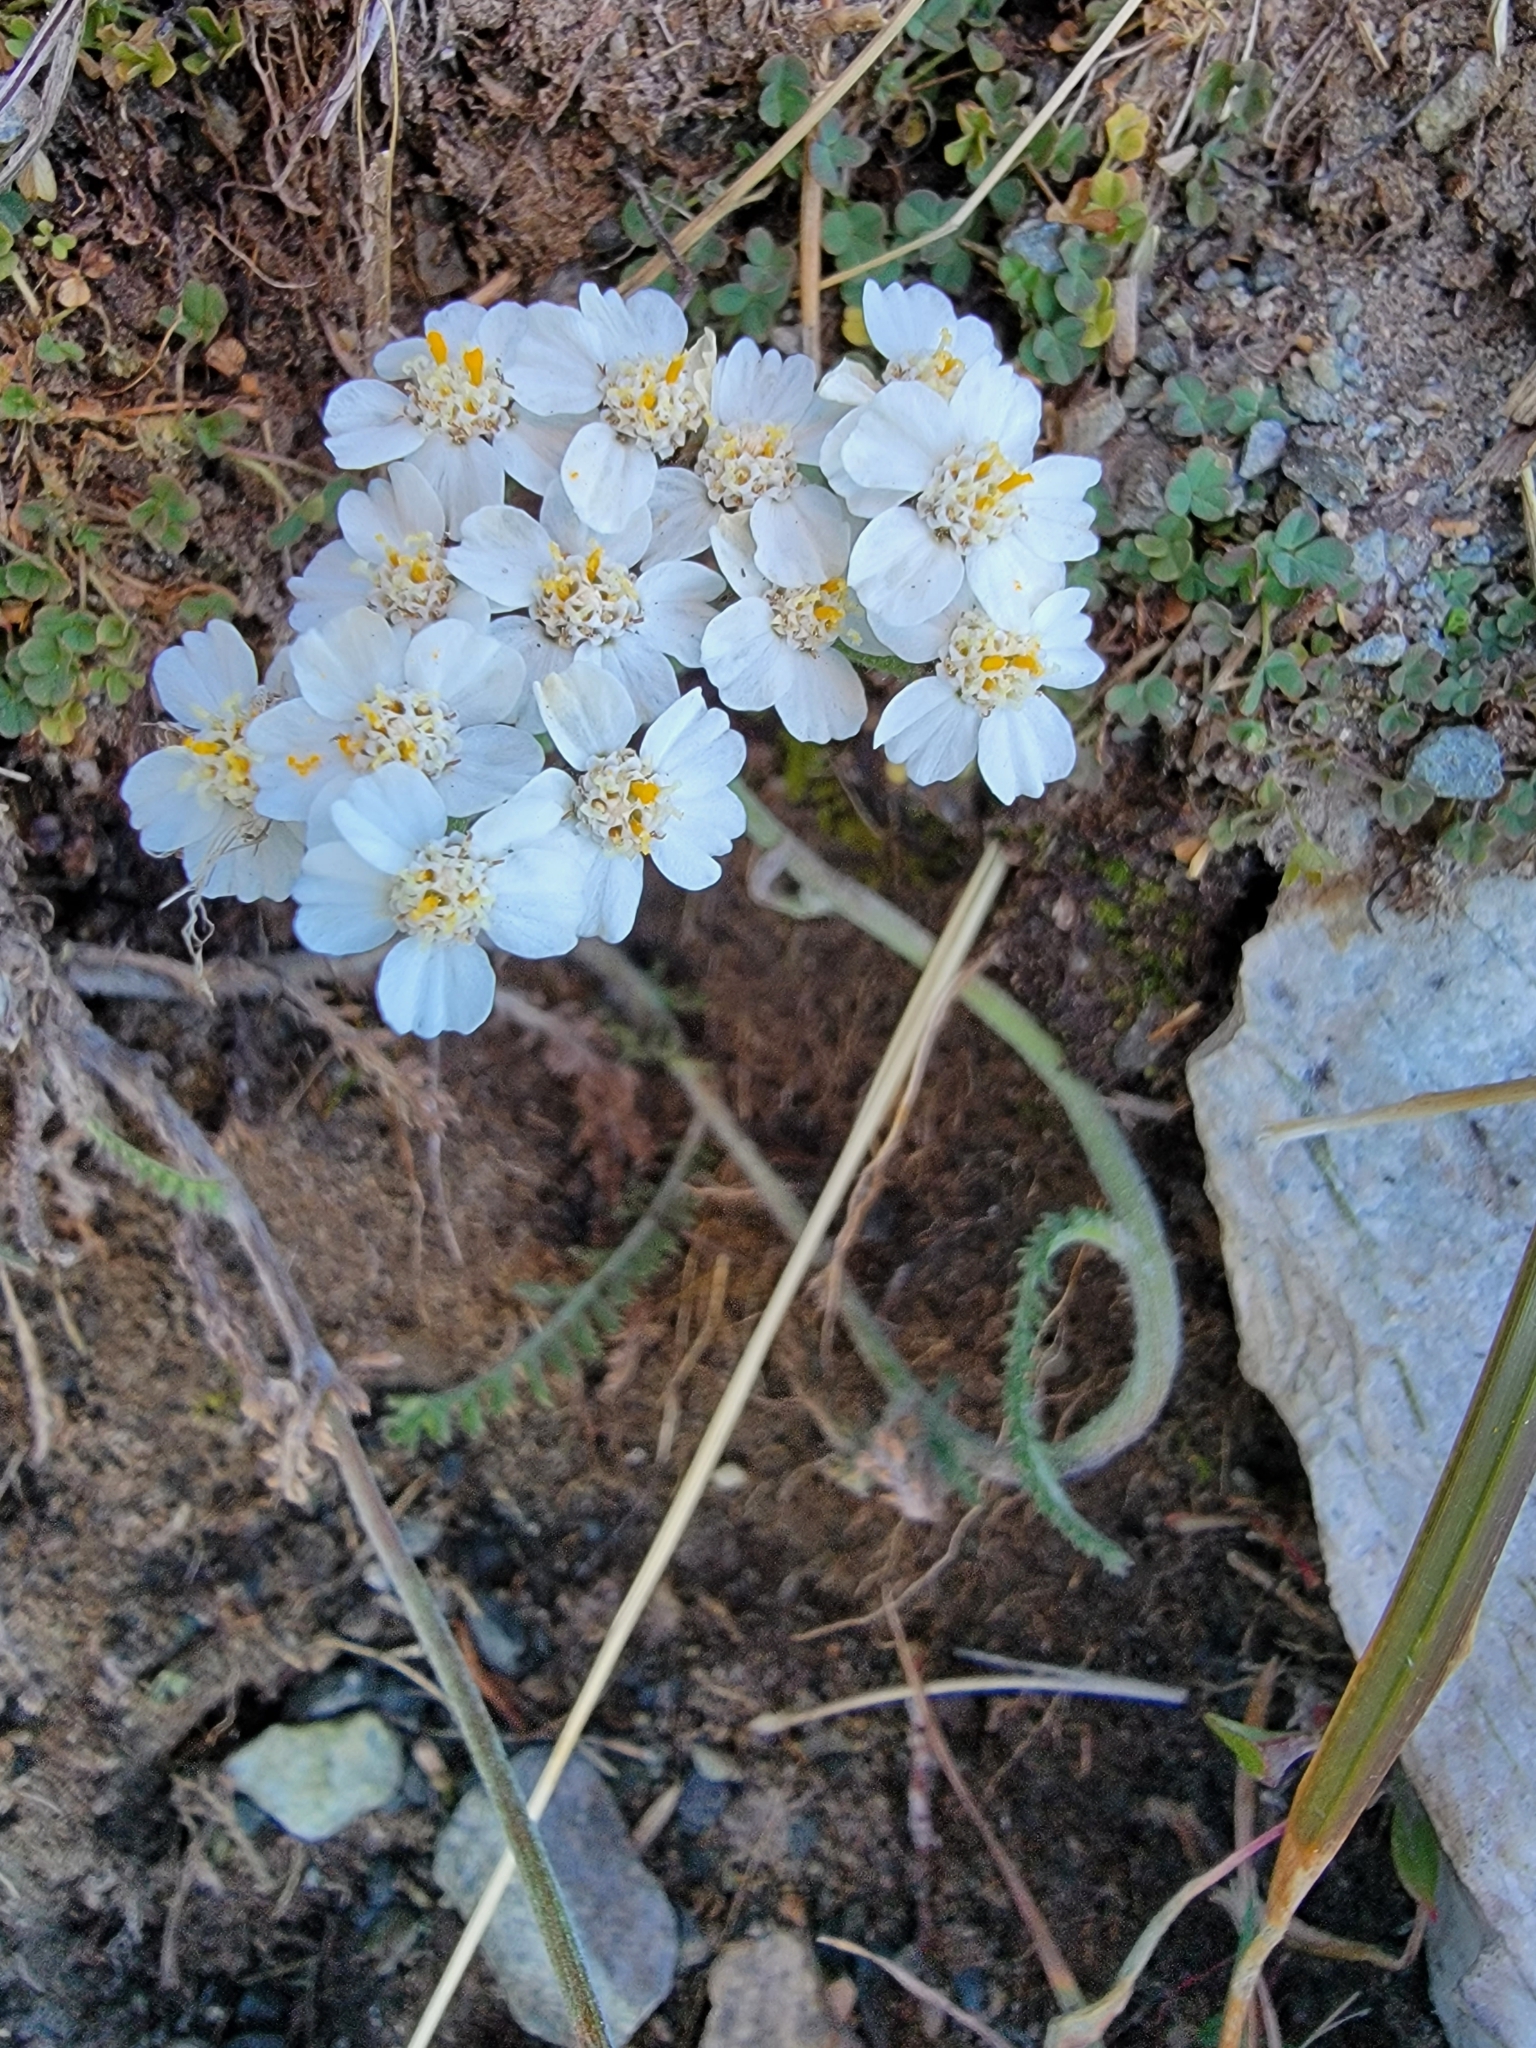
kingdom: Plantae
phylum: Tracheophyta
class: Magnoliopsida
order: Asterales
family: Asteraceae
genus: Achillea
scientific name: Achillea millefolium
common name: Yarrow
